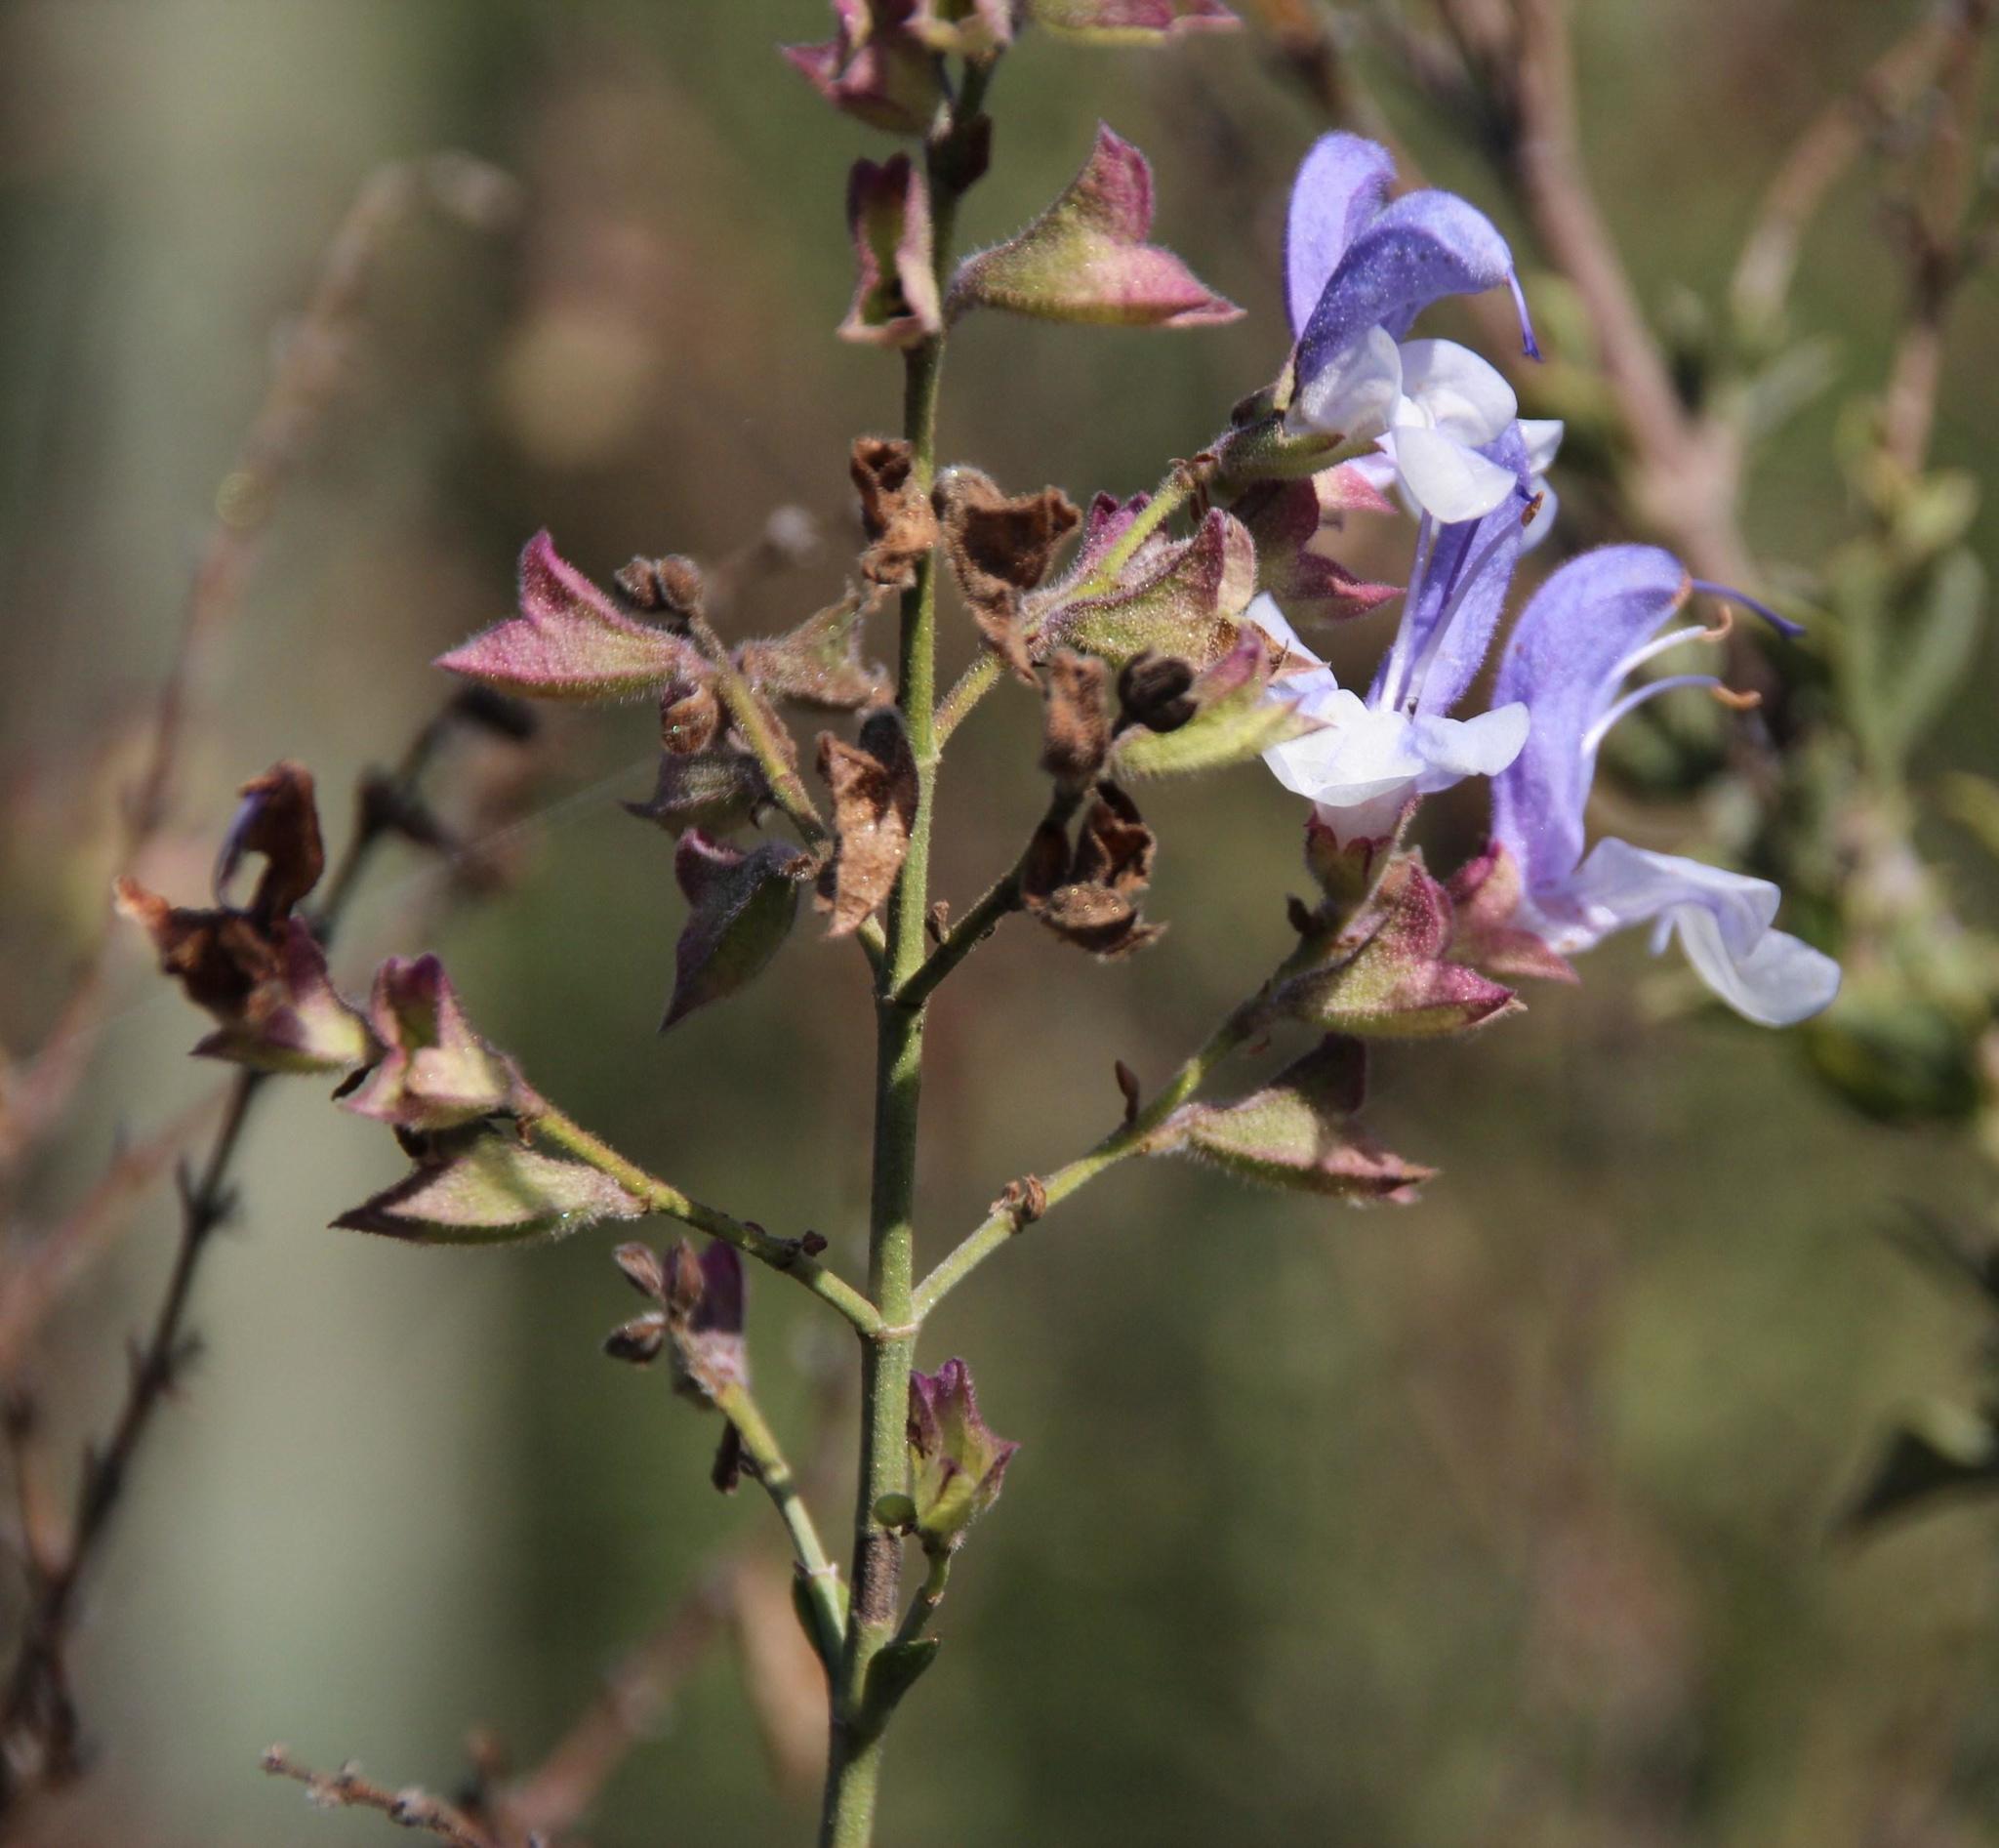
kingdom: Plantae
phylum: Tracheophyta
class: Magnoliopsida
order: Lamiales
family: Lamiaceae
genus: Salvia
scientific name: Salvia africana
